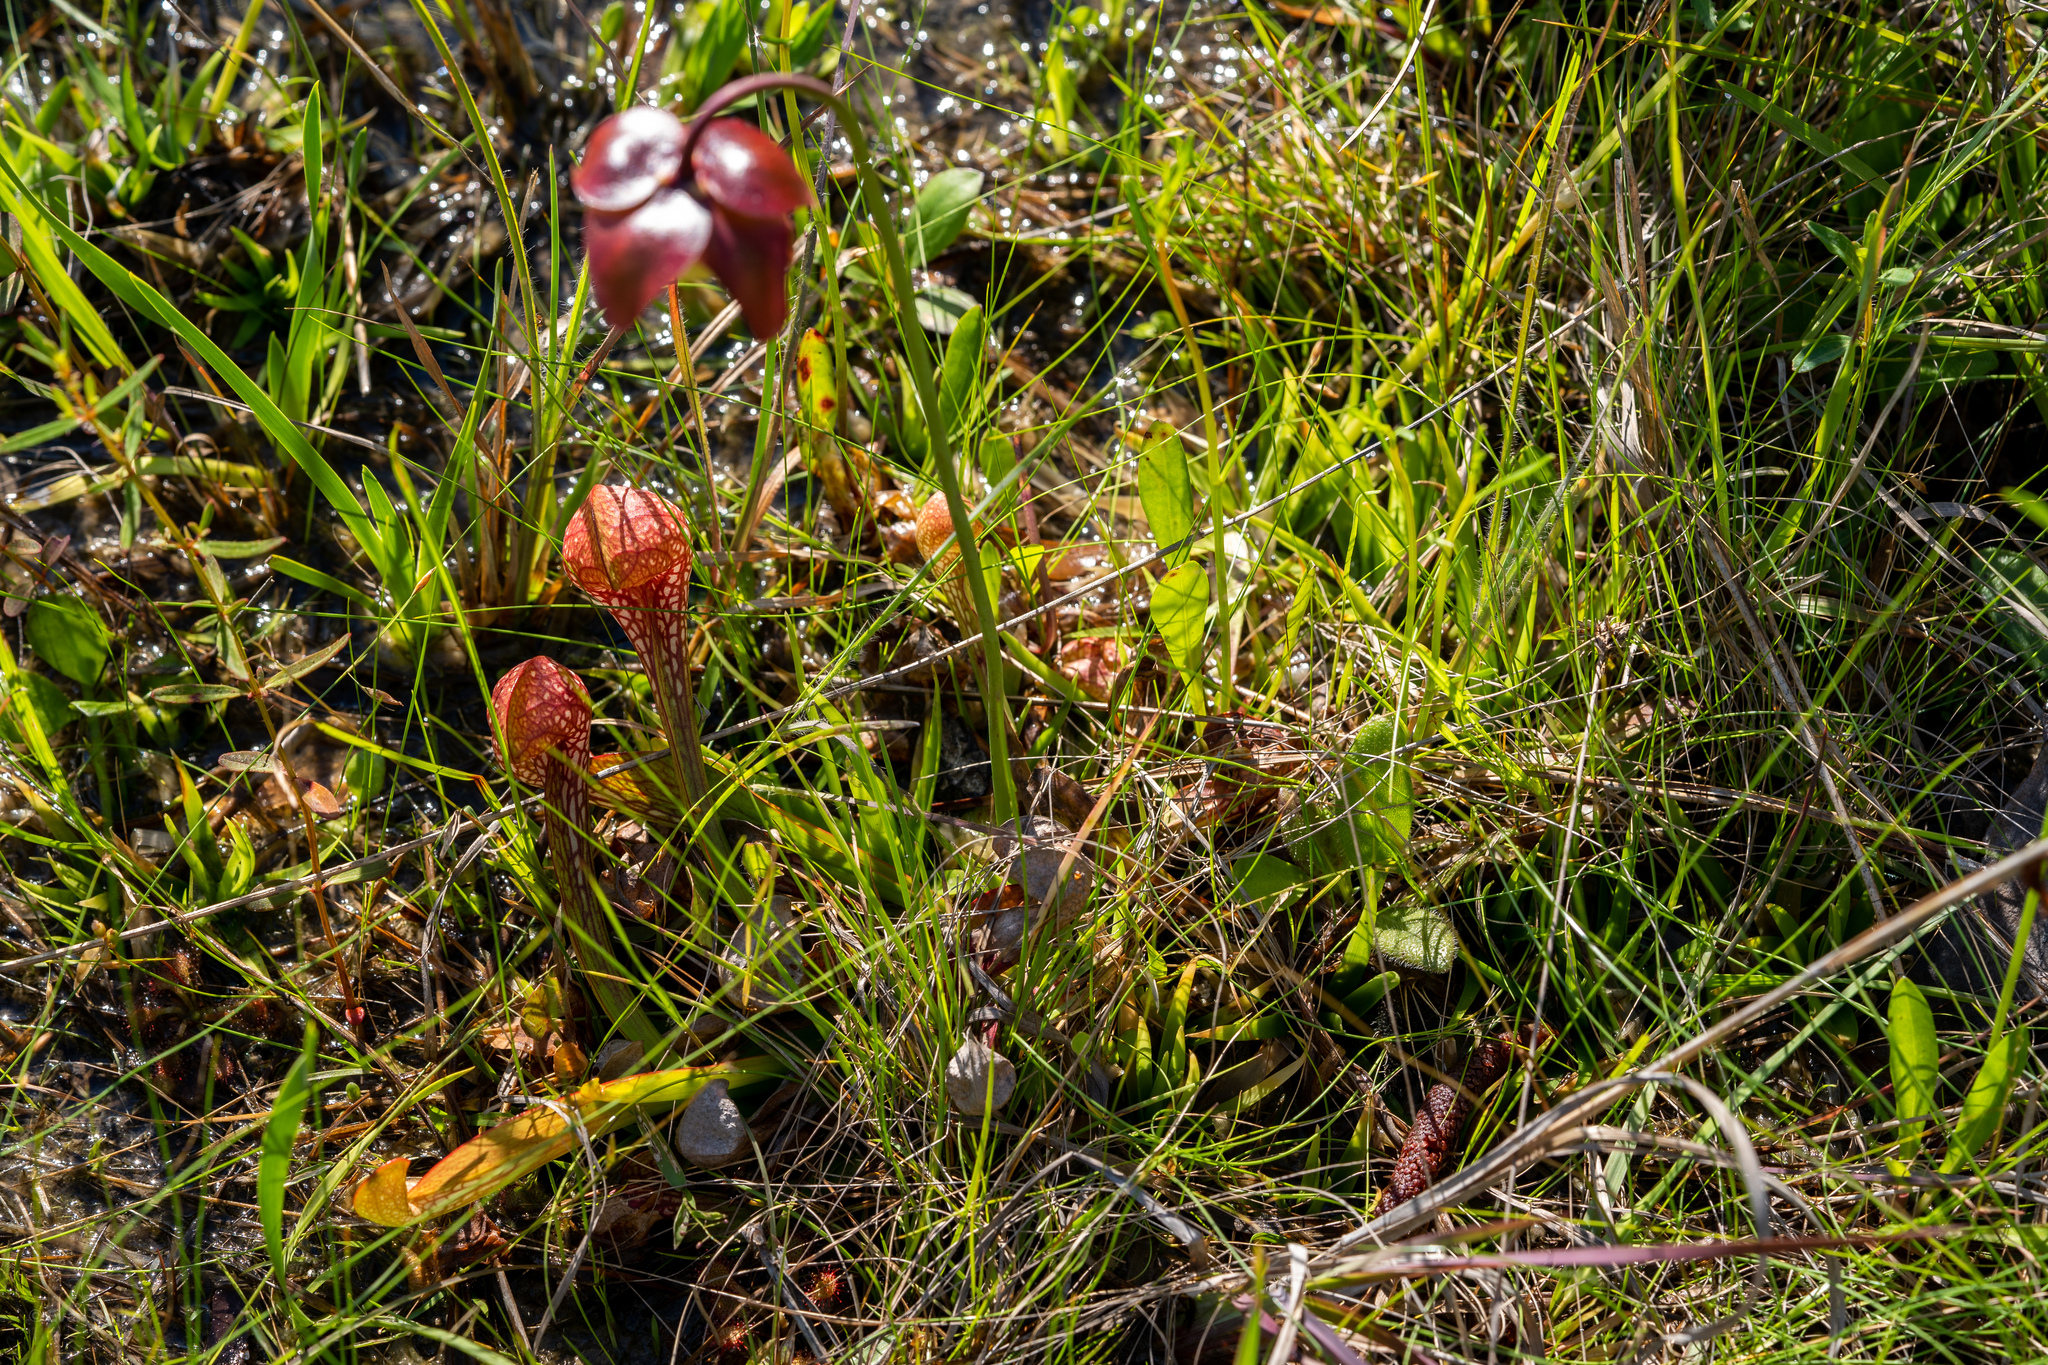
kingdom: Plantae
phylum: Tracheophyta
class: Magnoliopsida
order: Ericales
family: Sarraceniaceae
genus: Sarracenia
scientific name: Sarracenia psittacina
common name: Parrot pitcherplant
